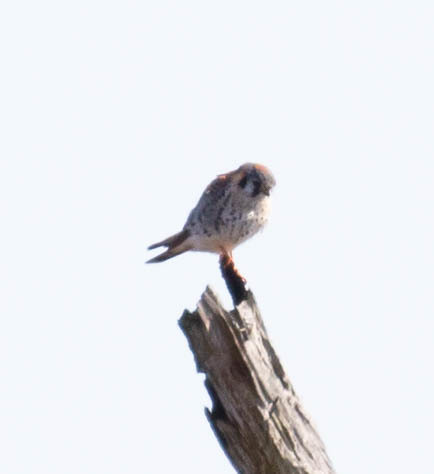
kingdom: Animalia
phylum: Chordata
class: Aves
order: Falconiformes
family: Falconidae
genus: Falco
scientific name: Falco sparverius
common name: American kestrel
